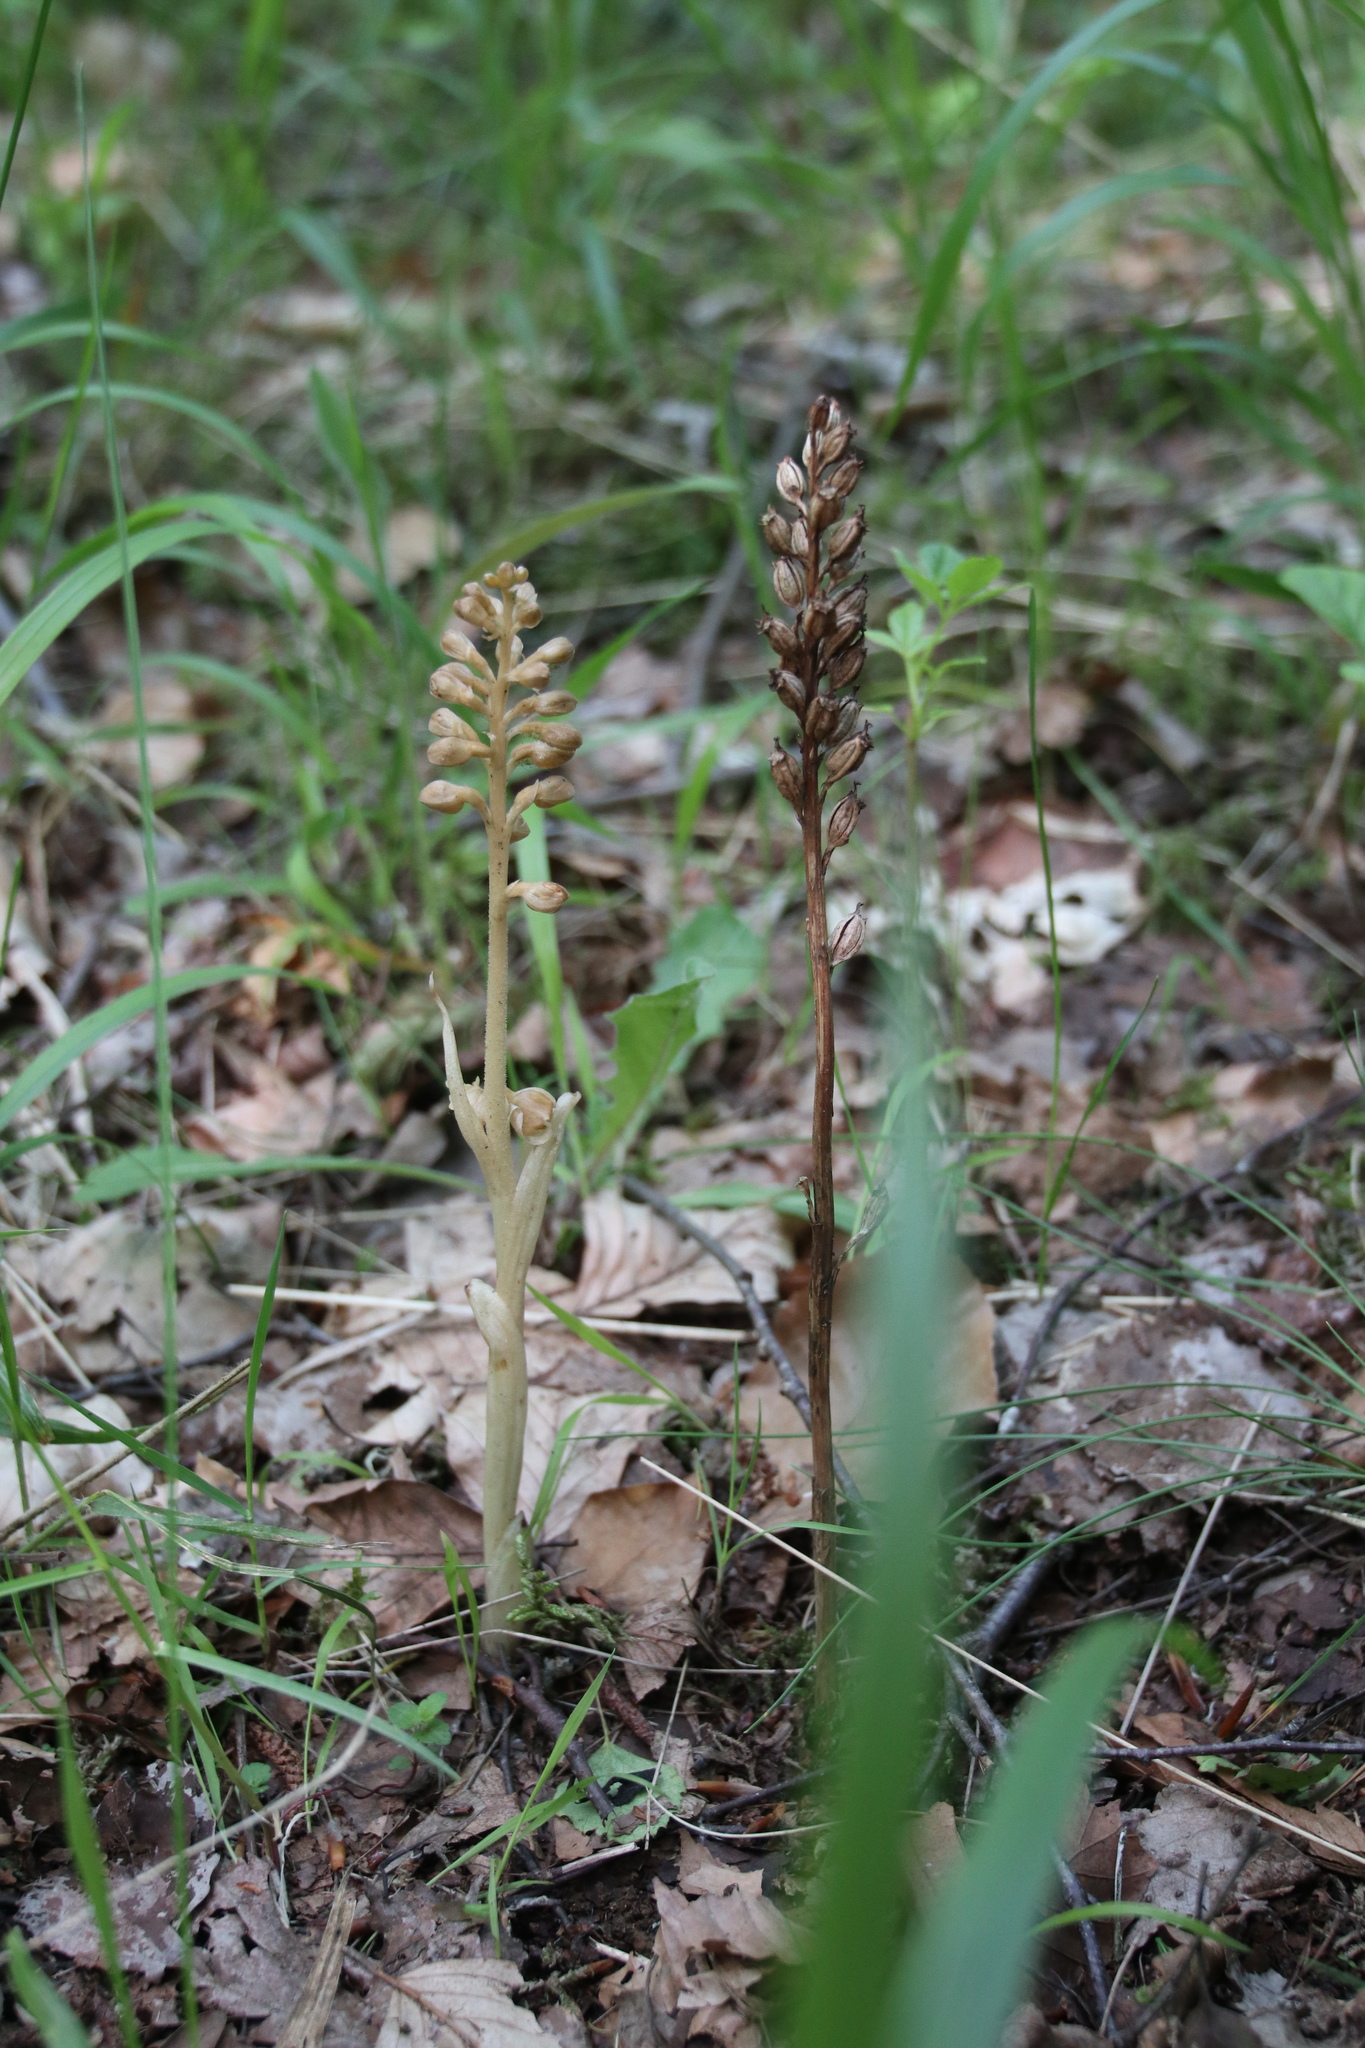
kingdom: Plantae
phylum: Tracheophyta
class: Liliopsida
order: Asparagales
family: Orchidaceae
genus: Neottia
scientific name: Neottia nidus-avis
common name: Bird's-nest orchid
